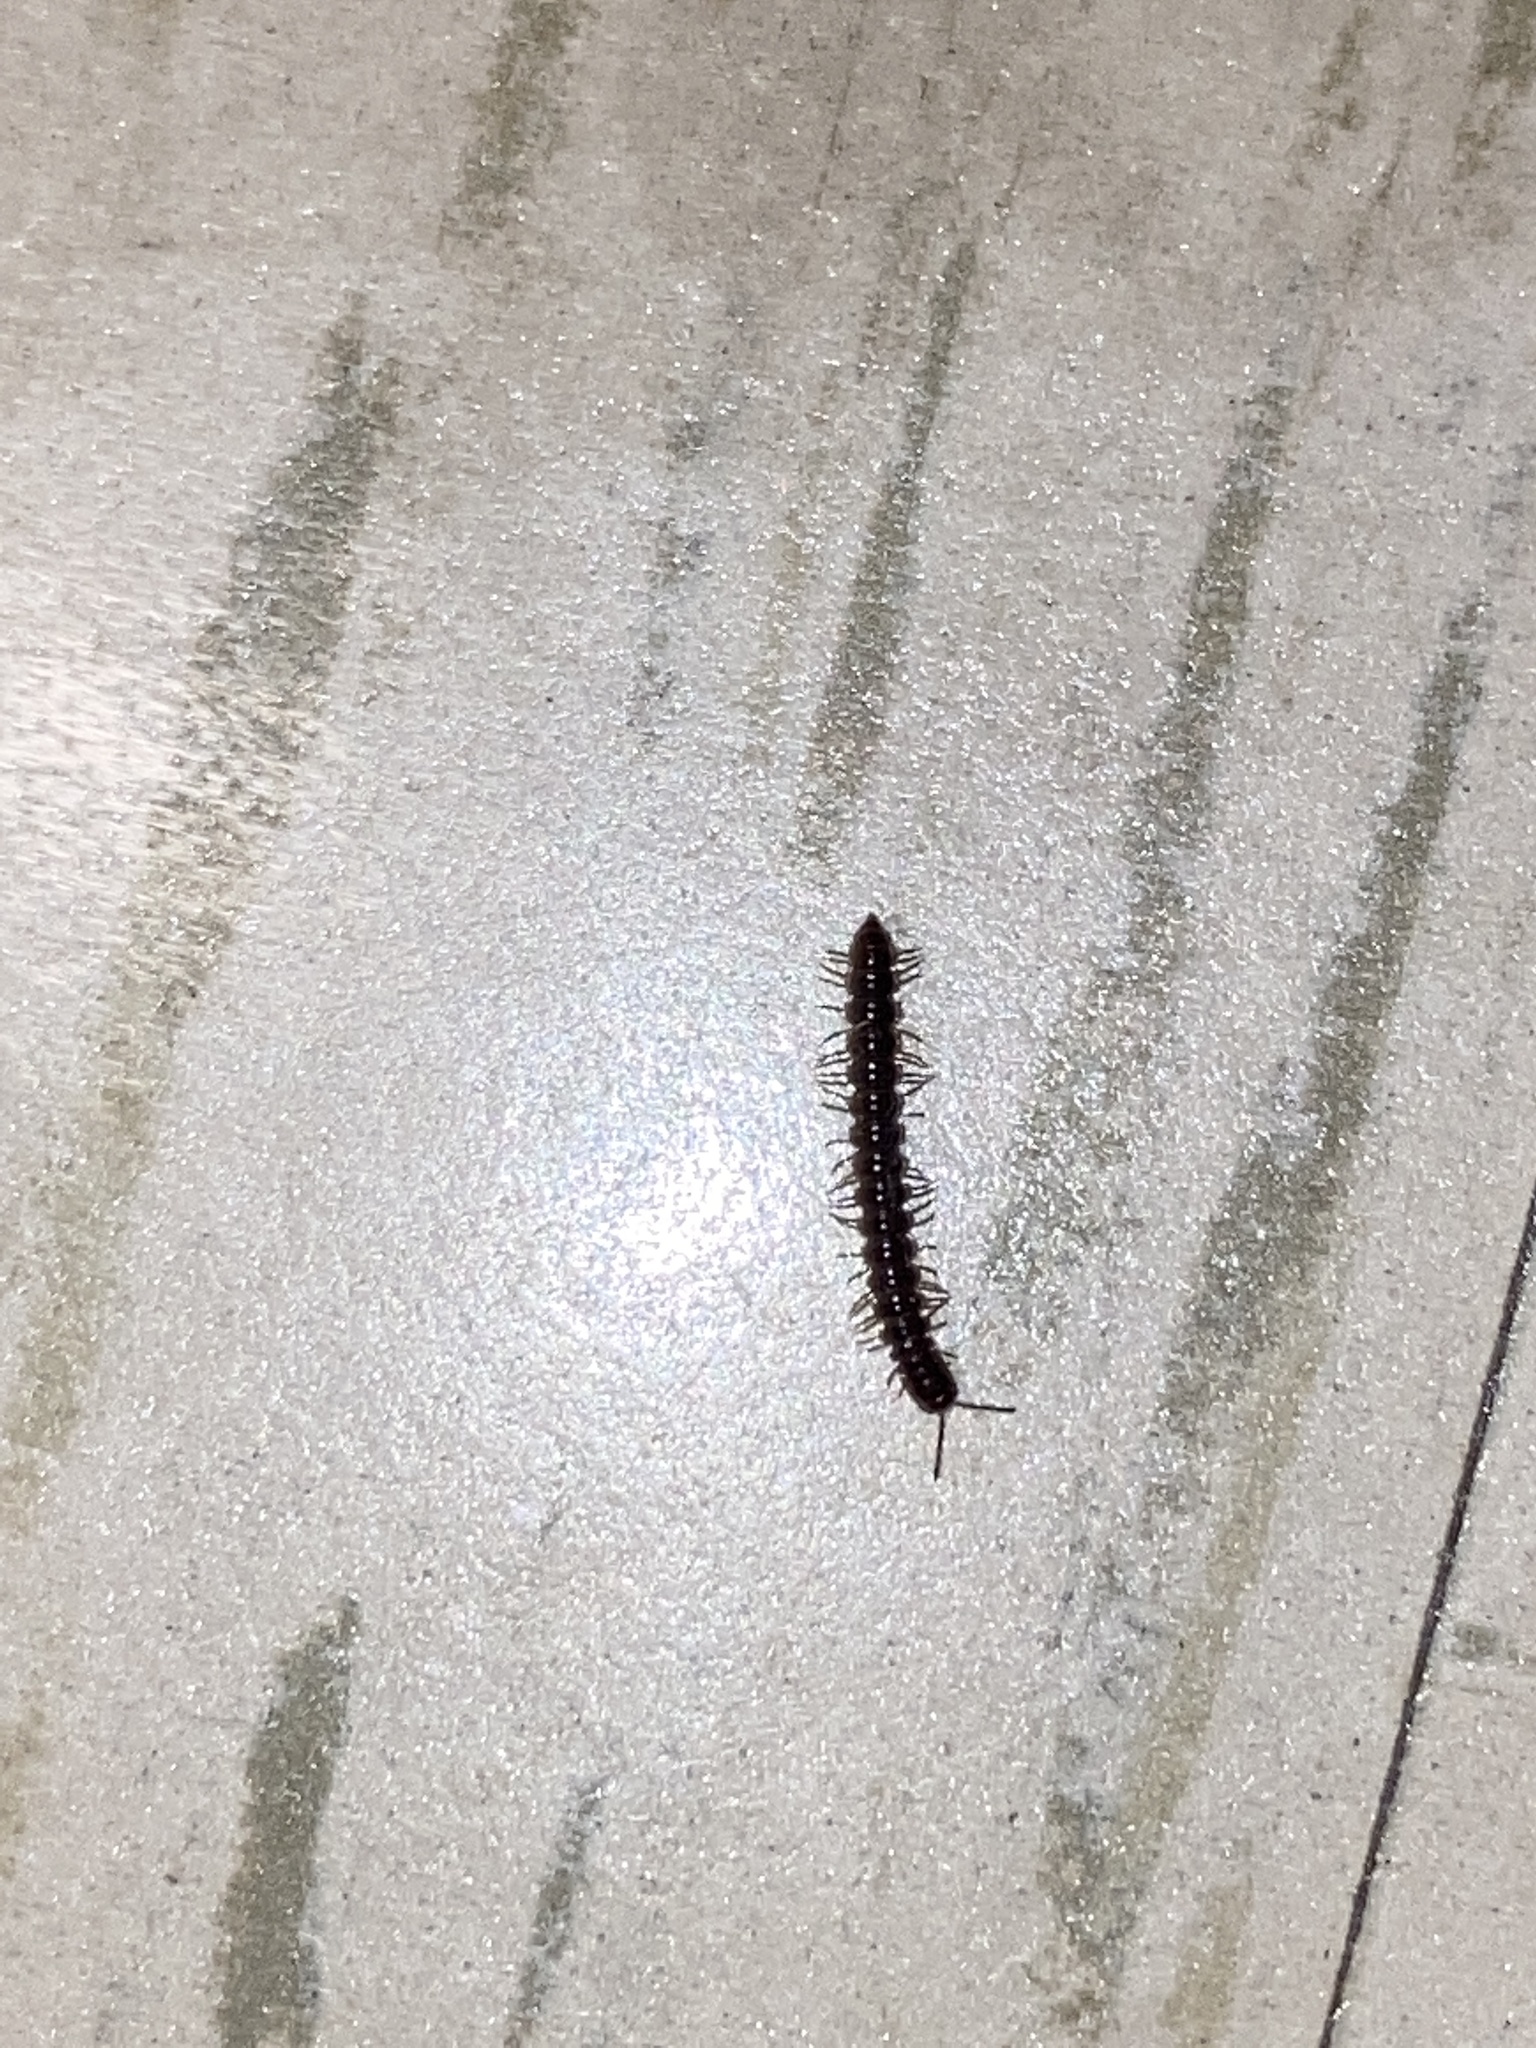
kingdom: Animalia
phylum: Arthropoda
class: Diplopoda
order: Polydesmida
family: Paradoxosomatidae
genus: Oxidus
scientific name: Oxidus gracilis
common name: Greenhouse millipede
